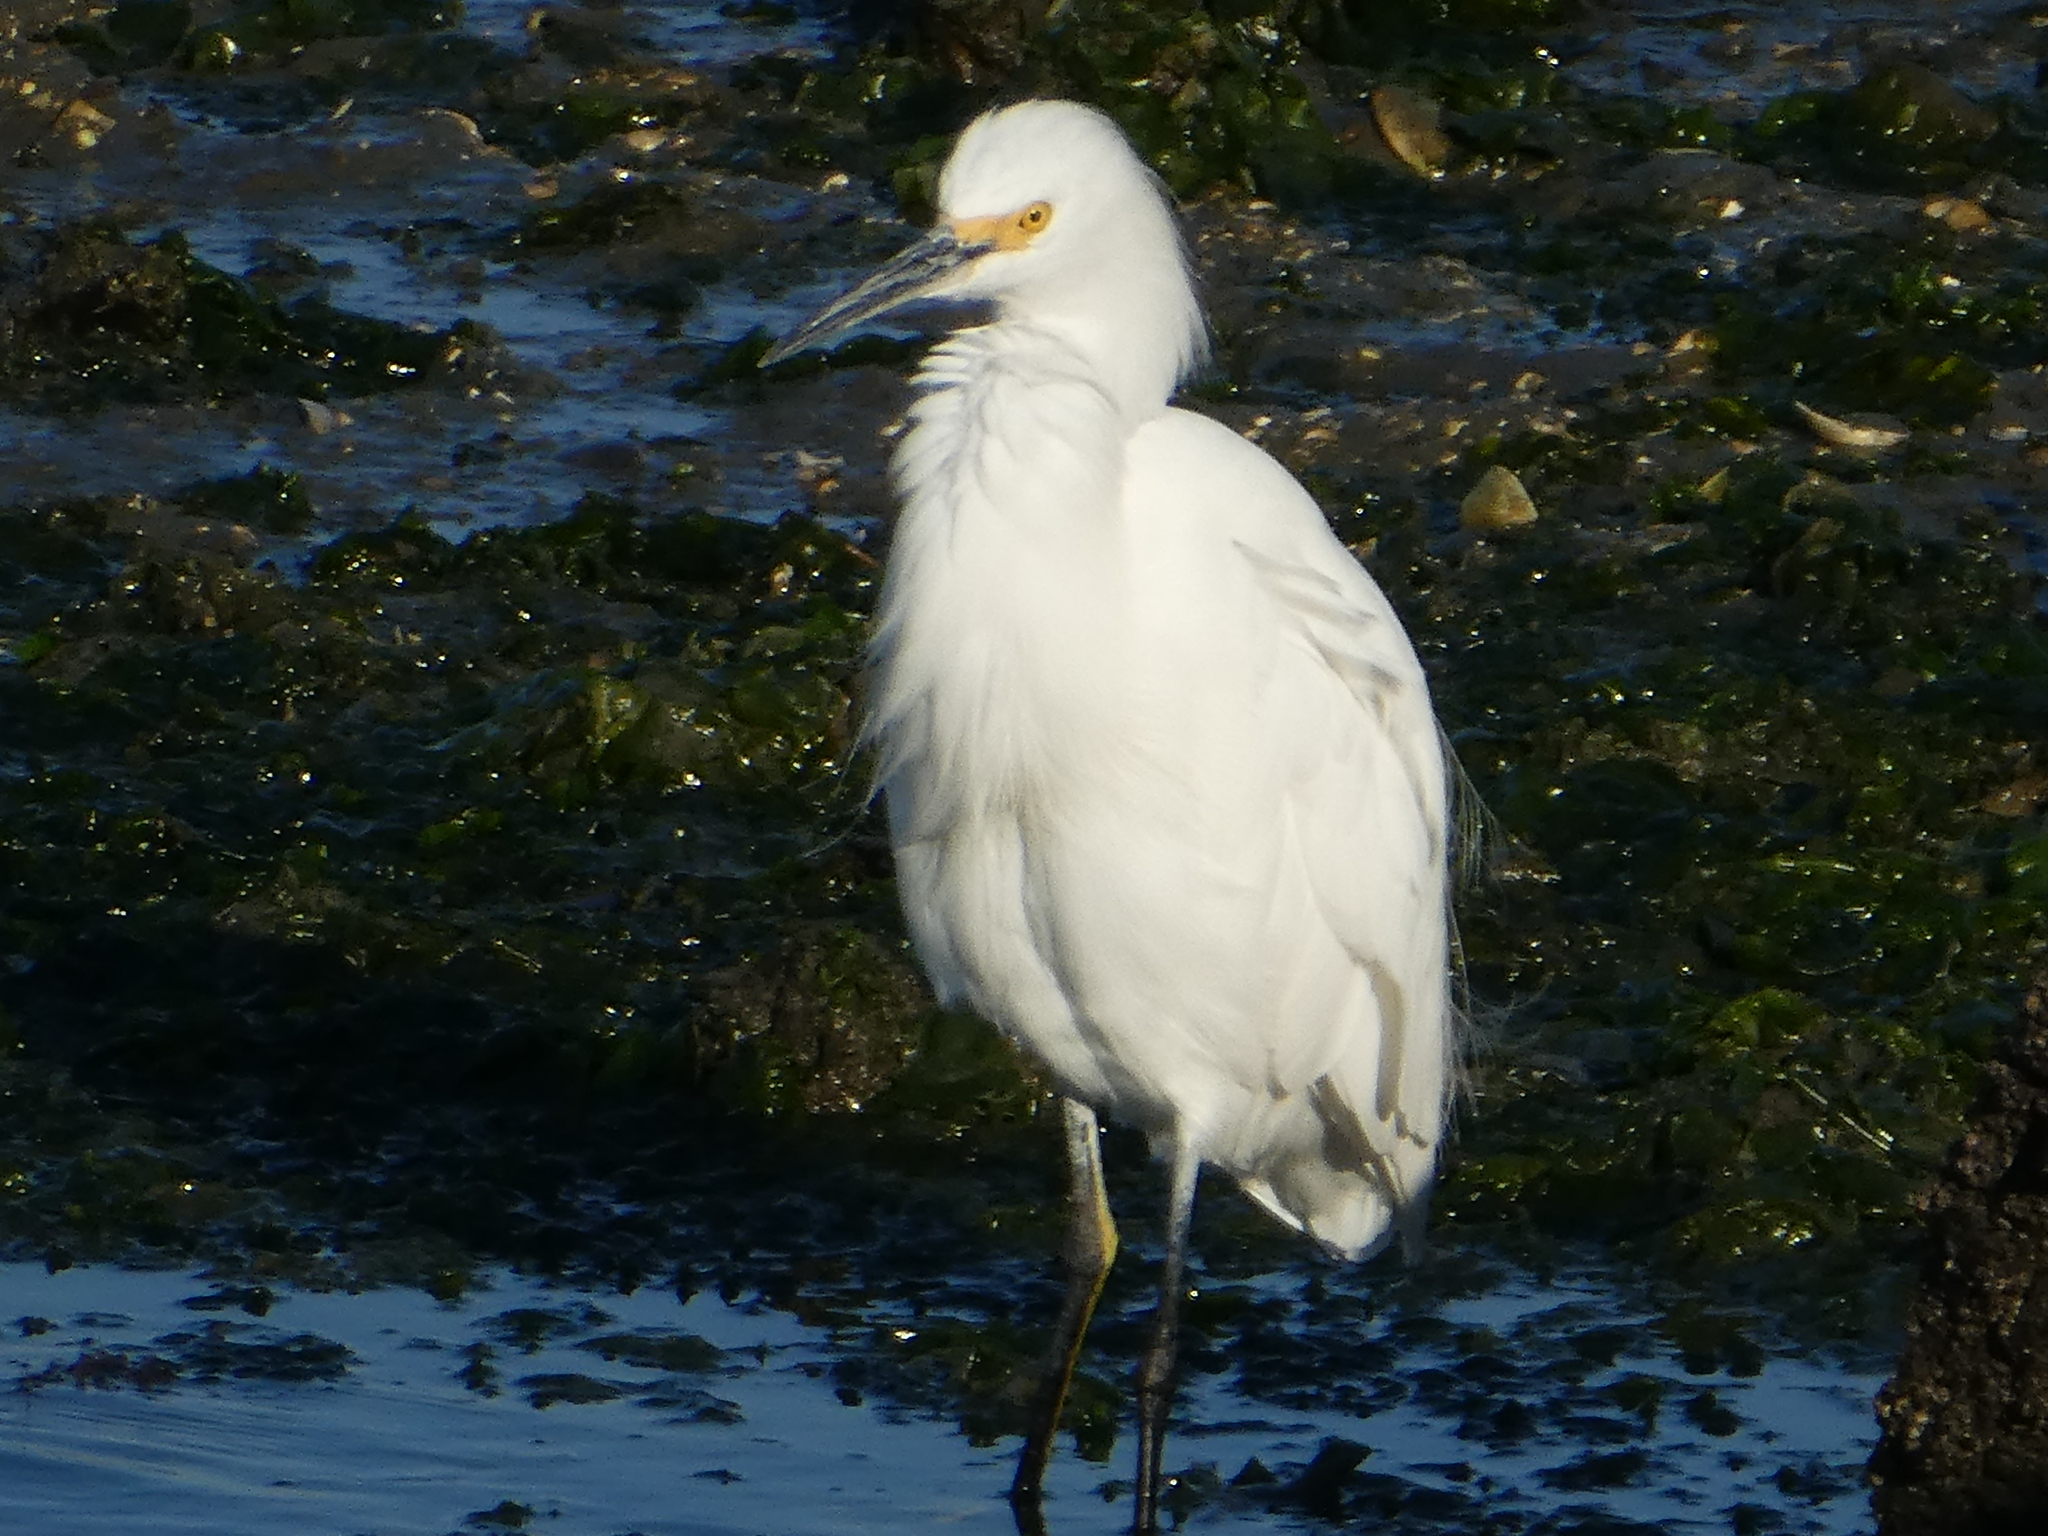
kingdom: Animalia
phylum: Chordata
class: Aves
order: Pelecaniformes
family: Ardeidae
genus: Egretta
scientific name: Egretta thula
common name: Snowy egret
